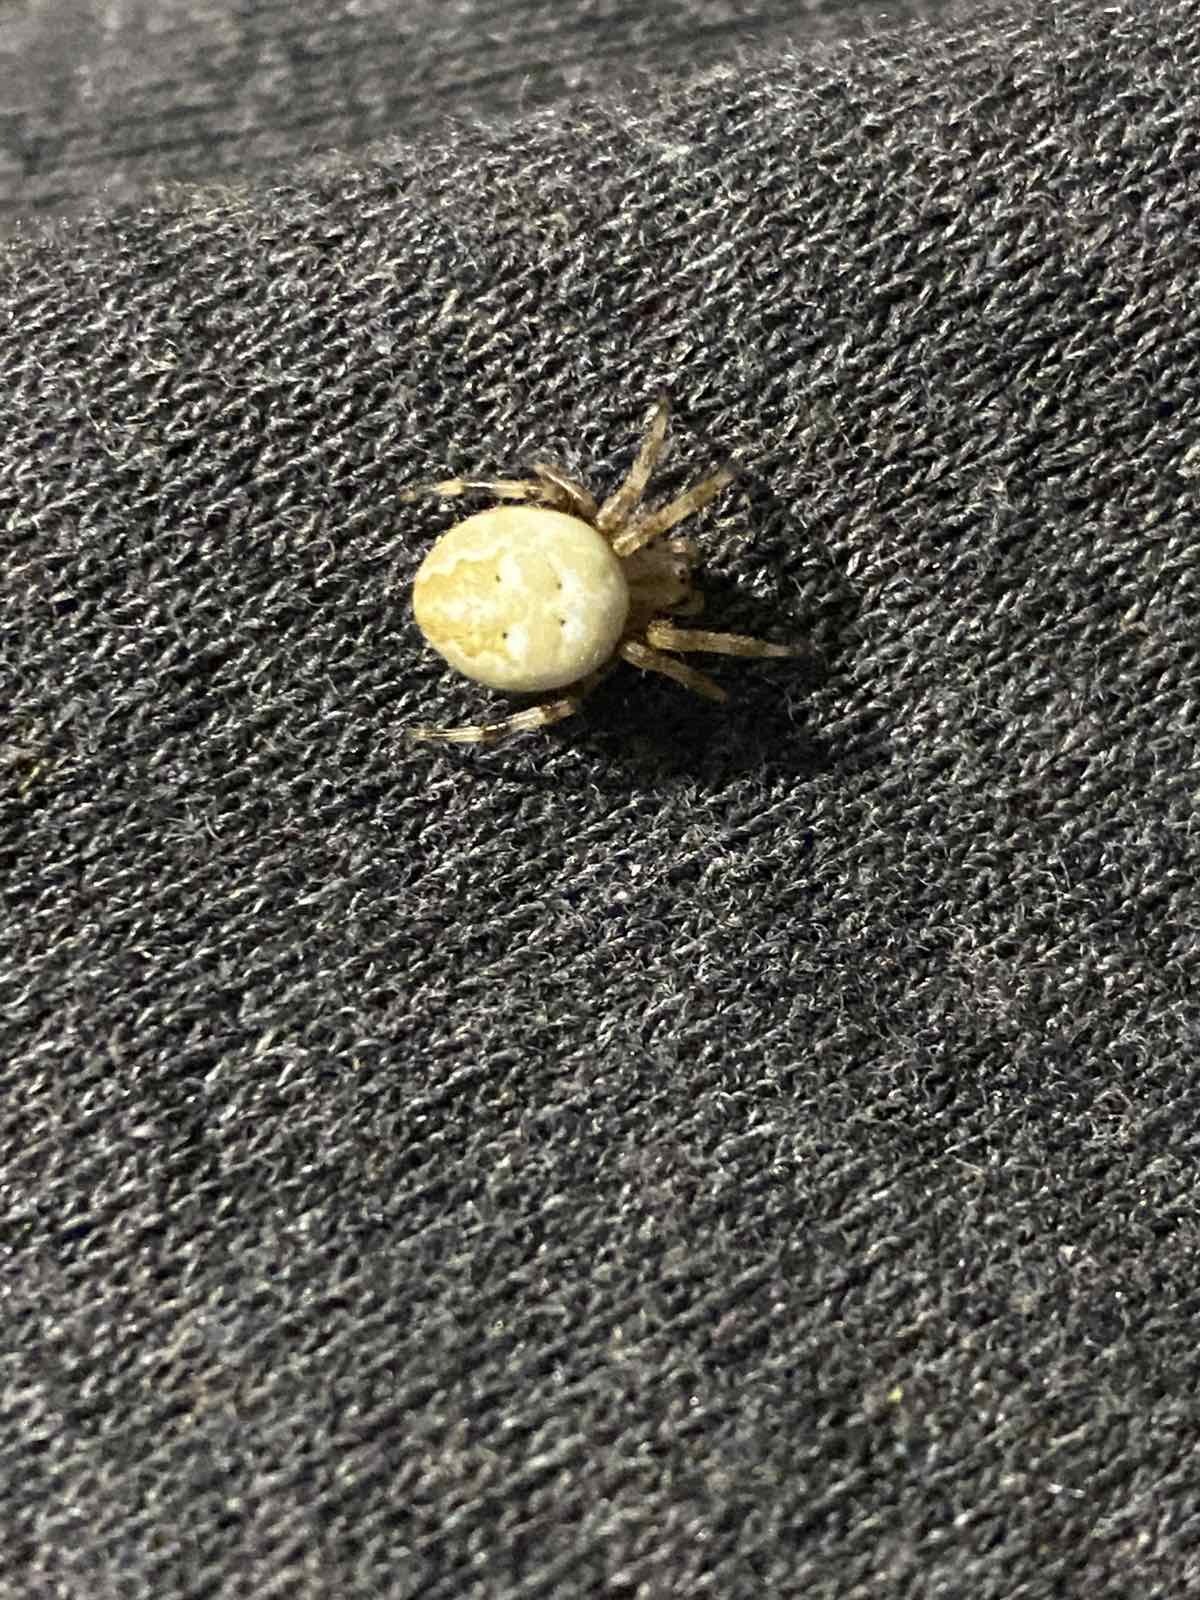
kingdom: Animalia
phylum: Arthropoda
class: Arachnida
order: Araneae
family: Araneidae
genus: Araneus
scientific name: Araneus quadratus
